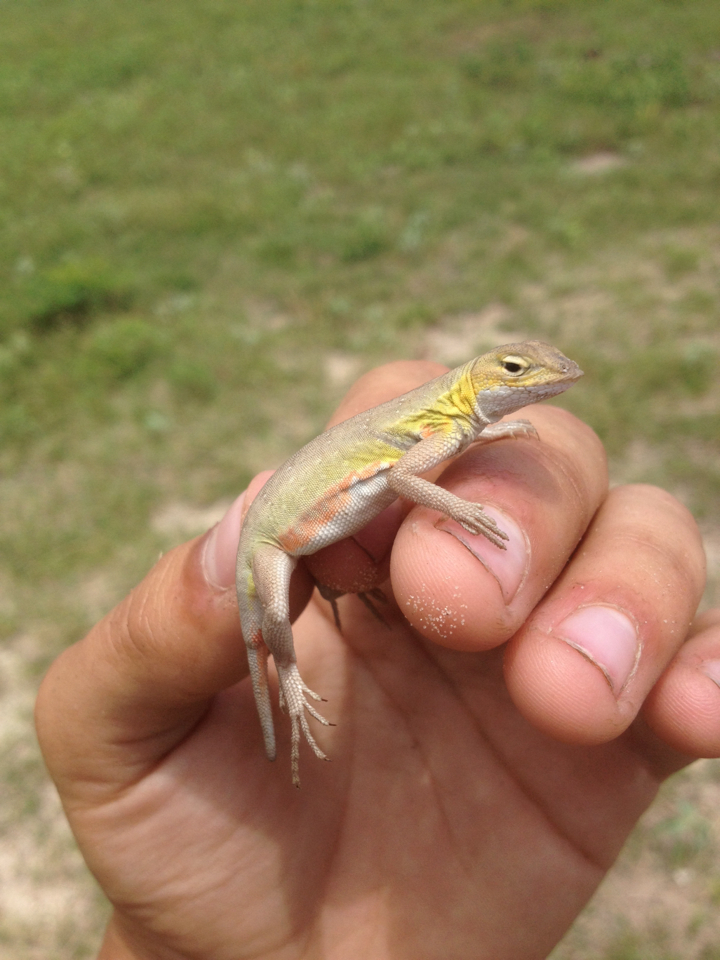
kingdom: Animalia
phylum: Chordata
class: Squamata
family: Phrynosomatidae
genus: Holbrookia
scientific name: Holbrookia propinqua
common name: Keeled earless lizard
